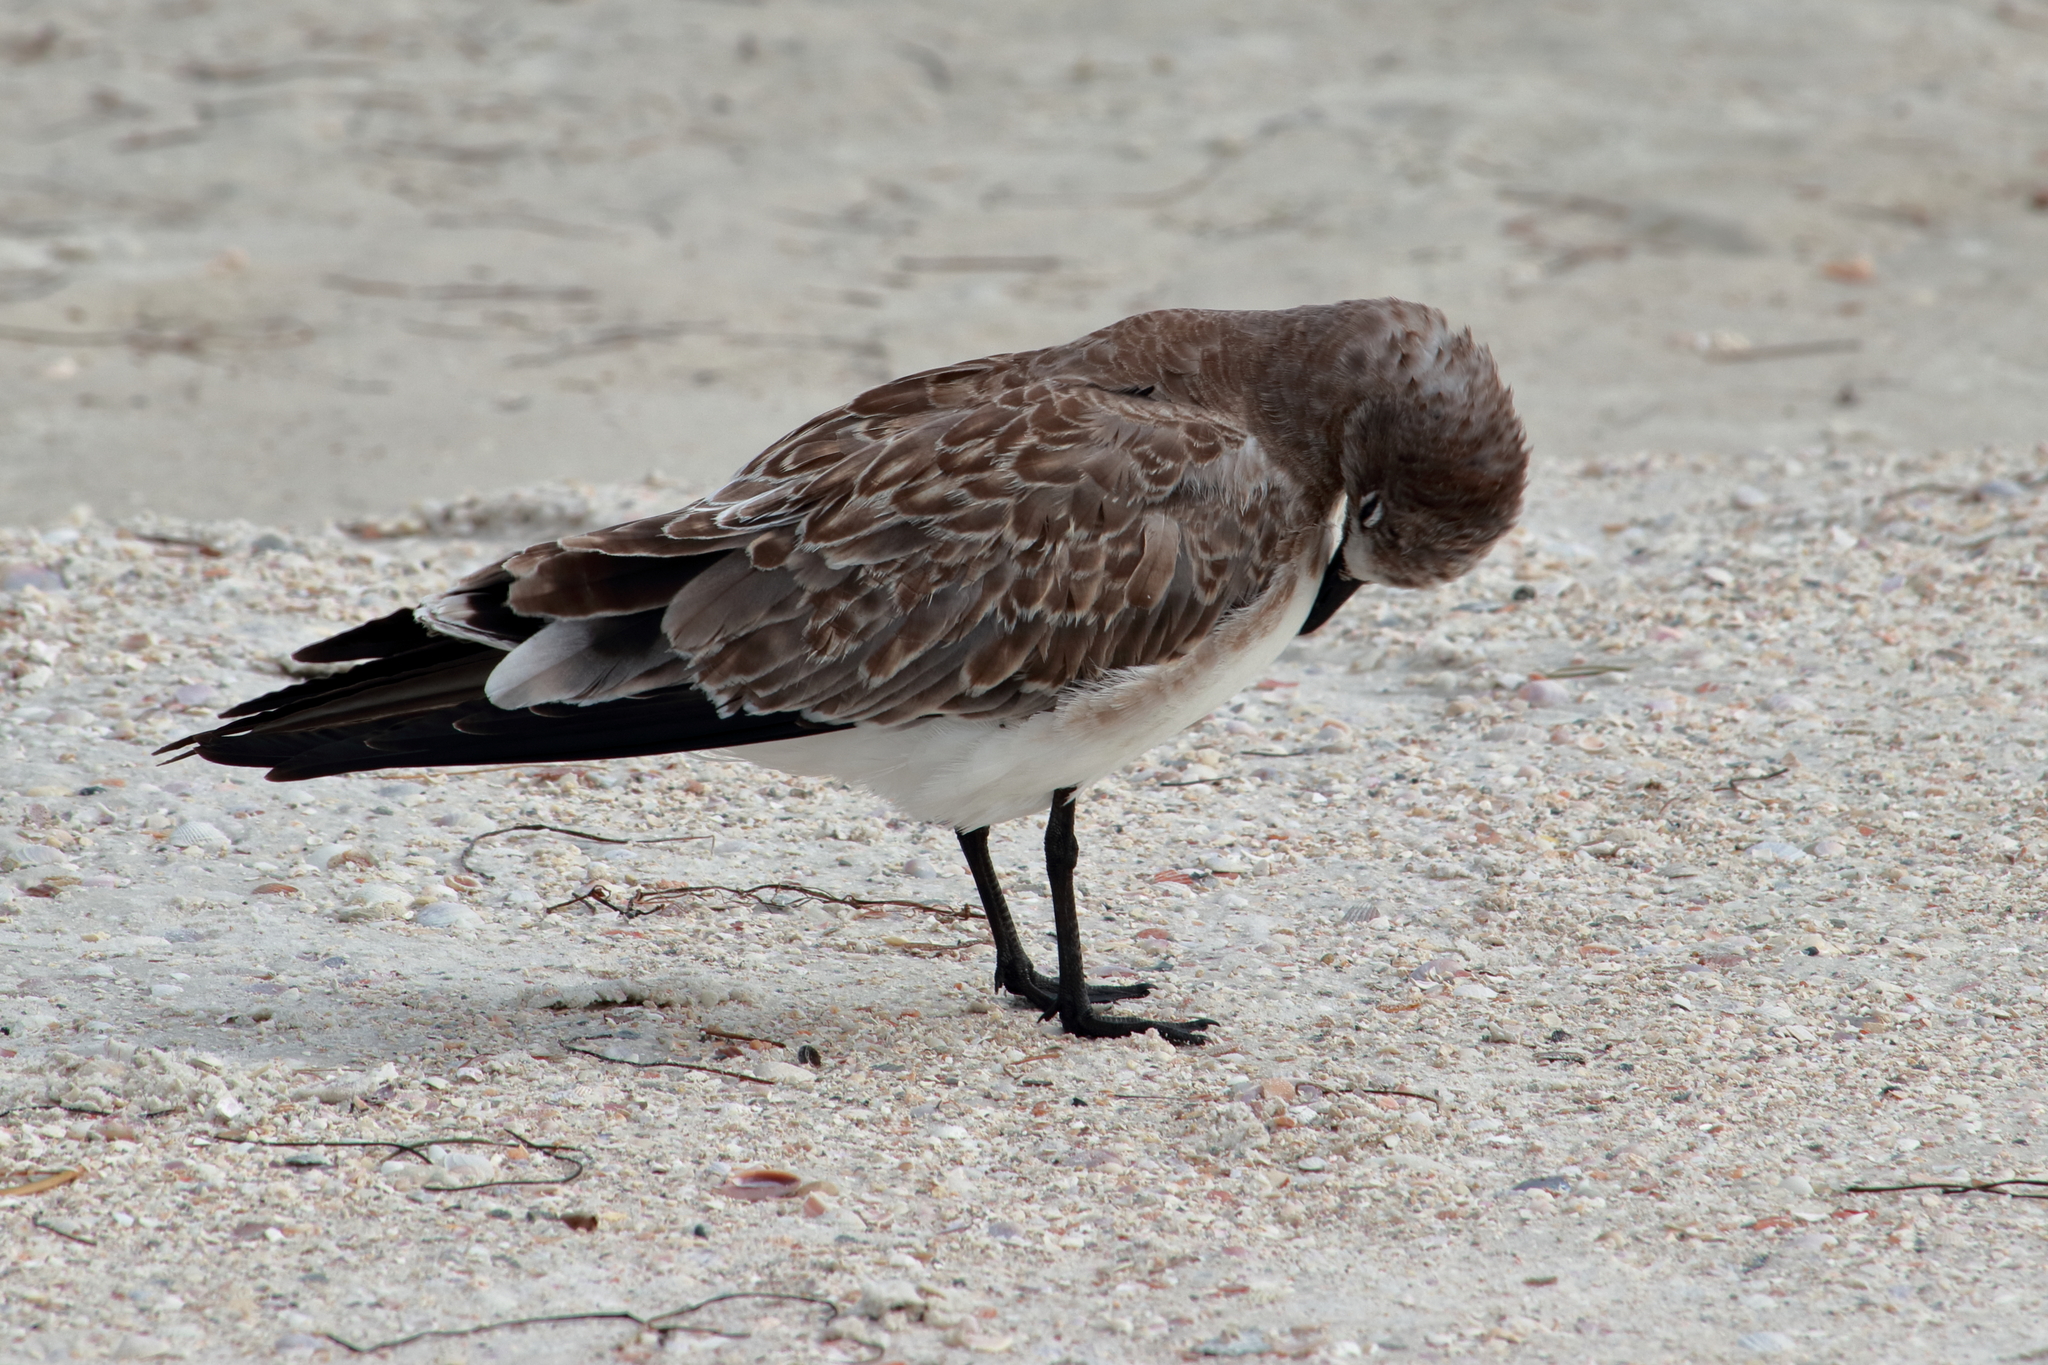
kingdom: Animalia
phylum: Chordata
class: Aves
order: Charadriiformes
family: Laridae
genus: Leucophaeus
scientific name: Leucophaeus atricilla
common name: Laughing gull
